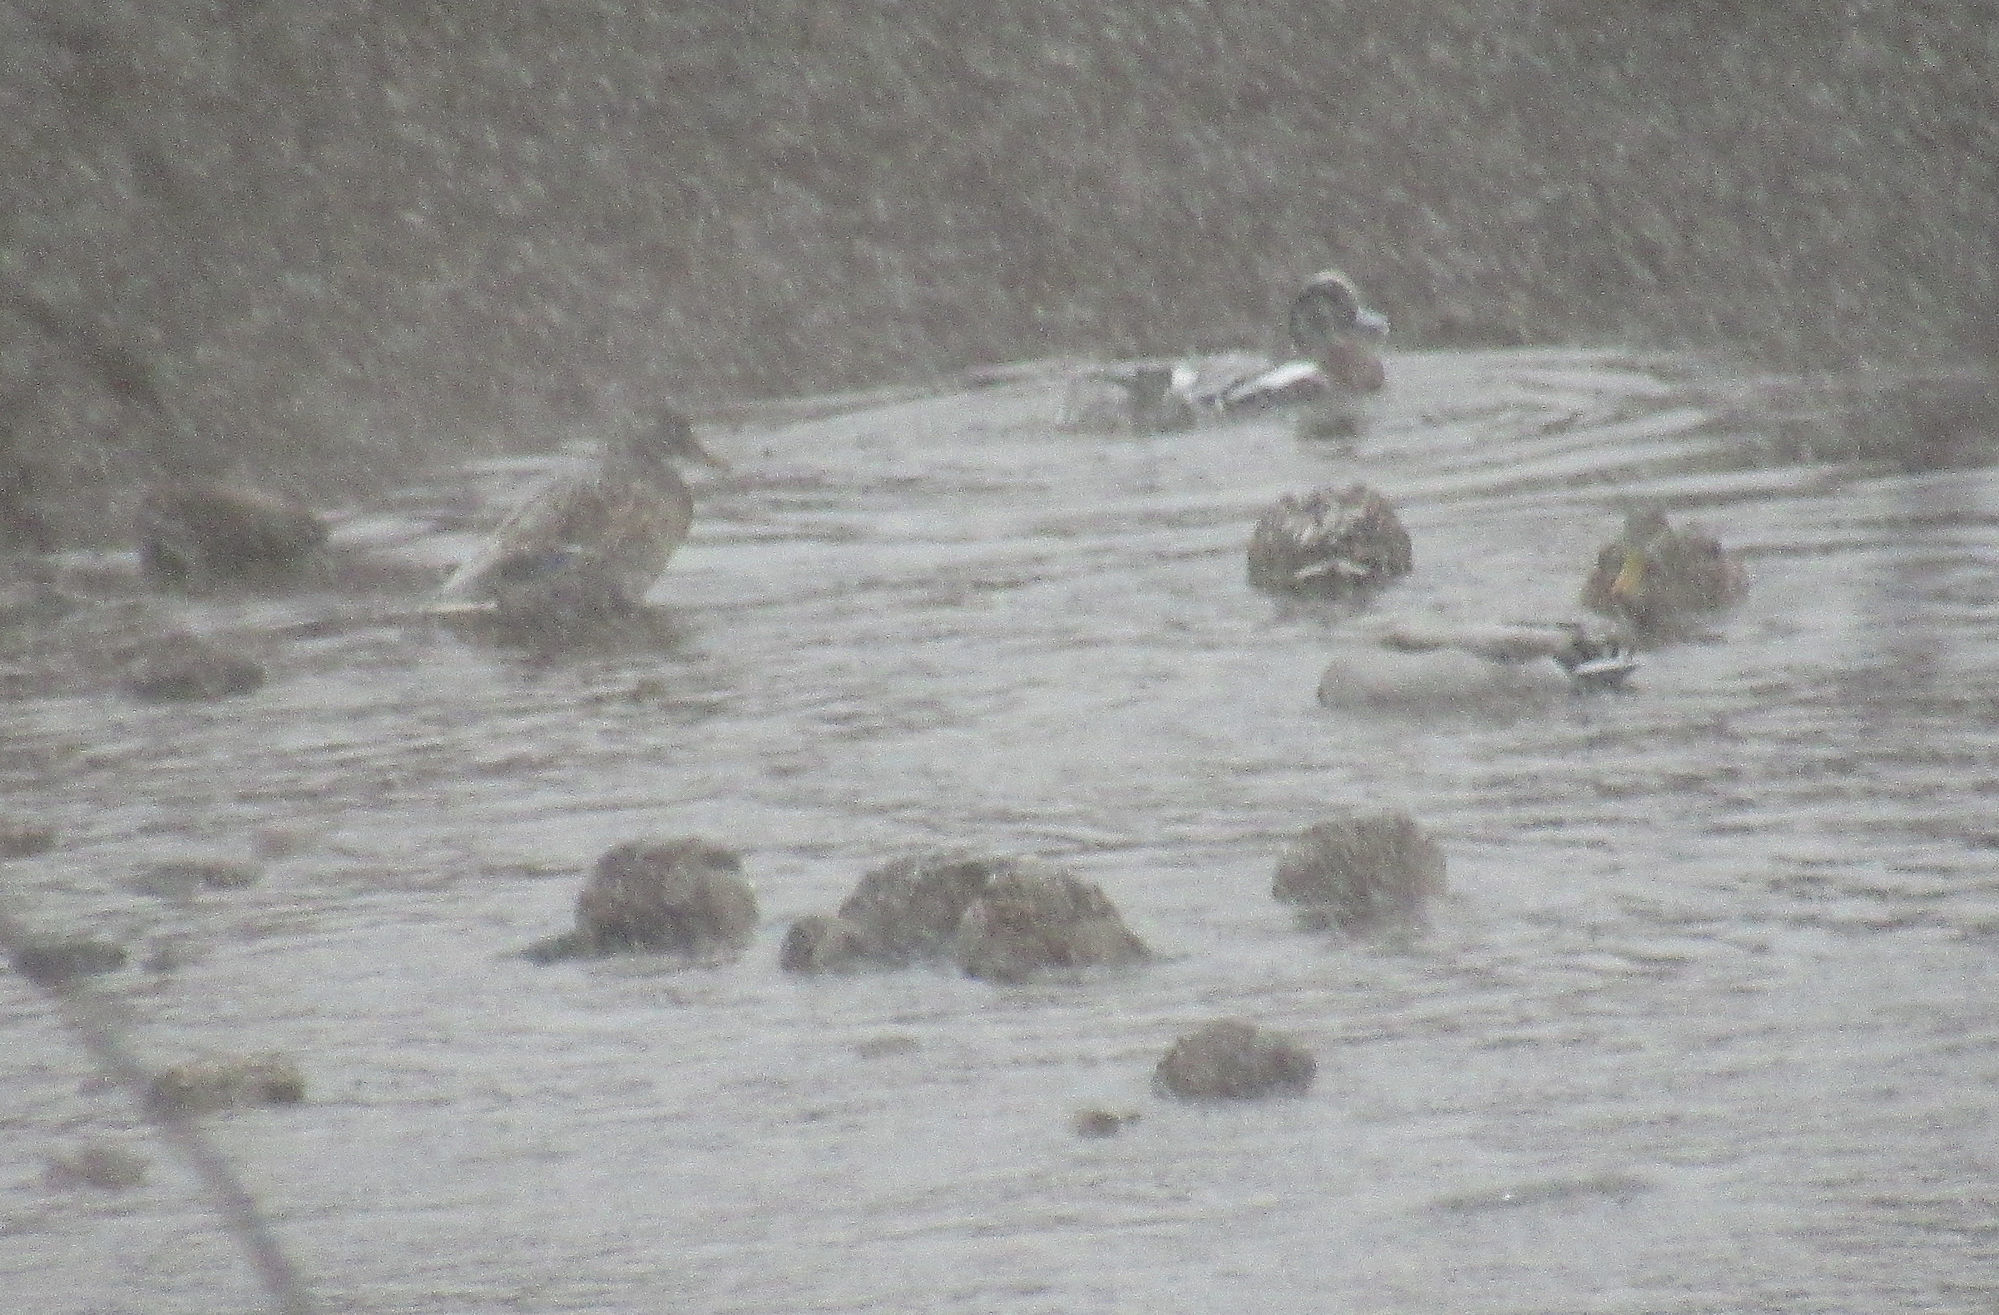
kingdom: Animalia
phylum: Chordata
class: Aves
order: Anseriformes
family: Anatidae
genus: Mareca
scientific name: Mareca americana
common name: American wigeon
